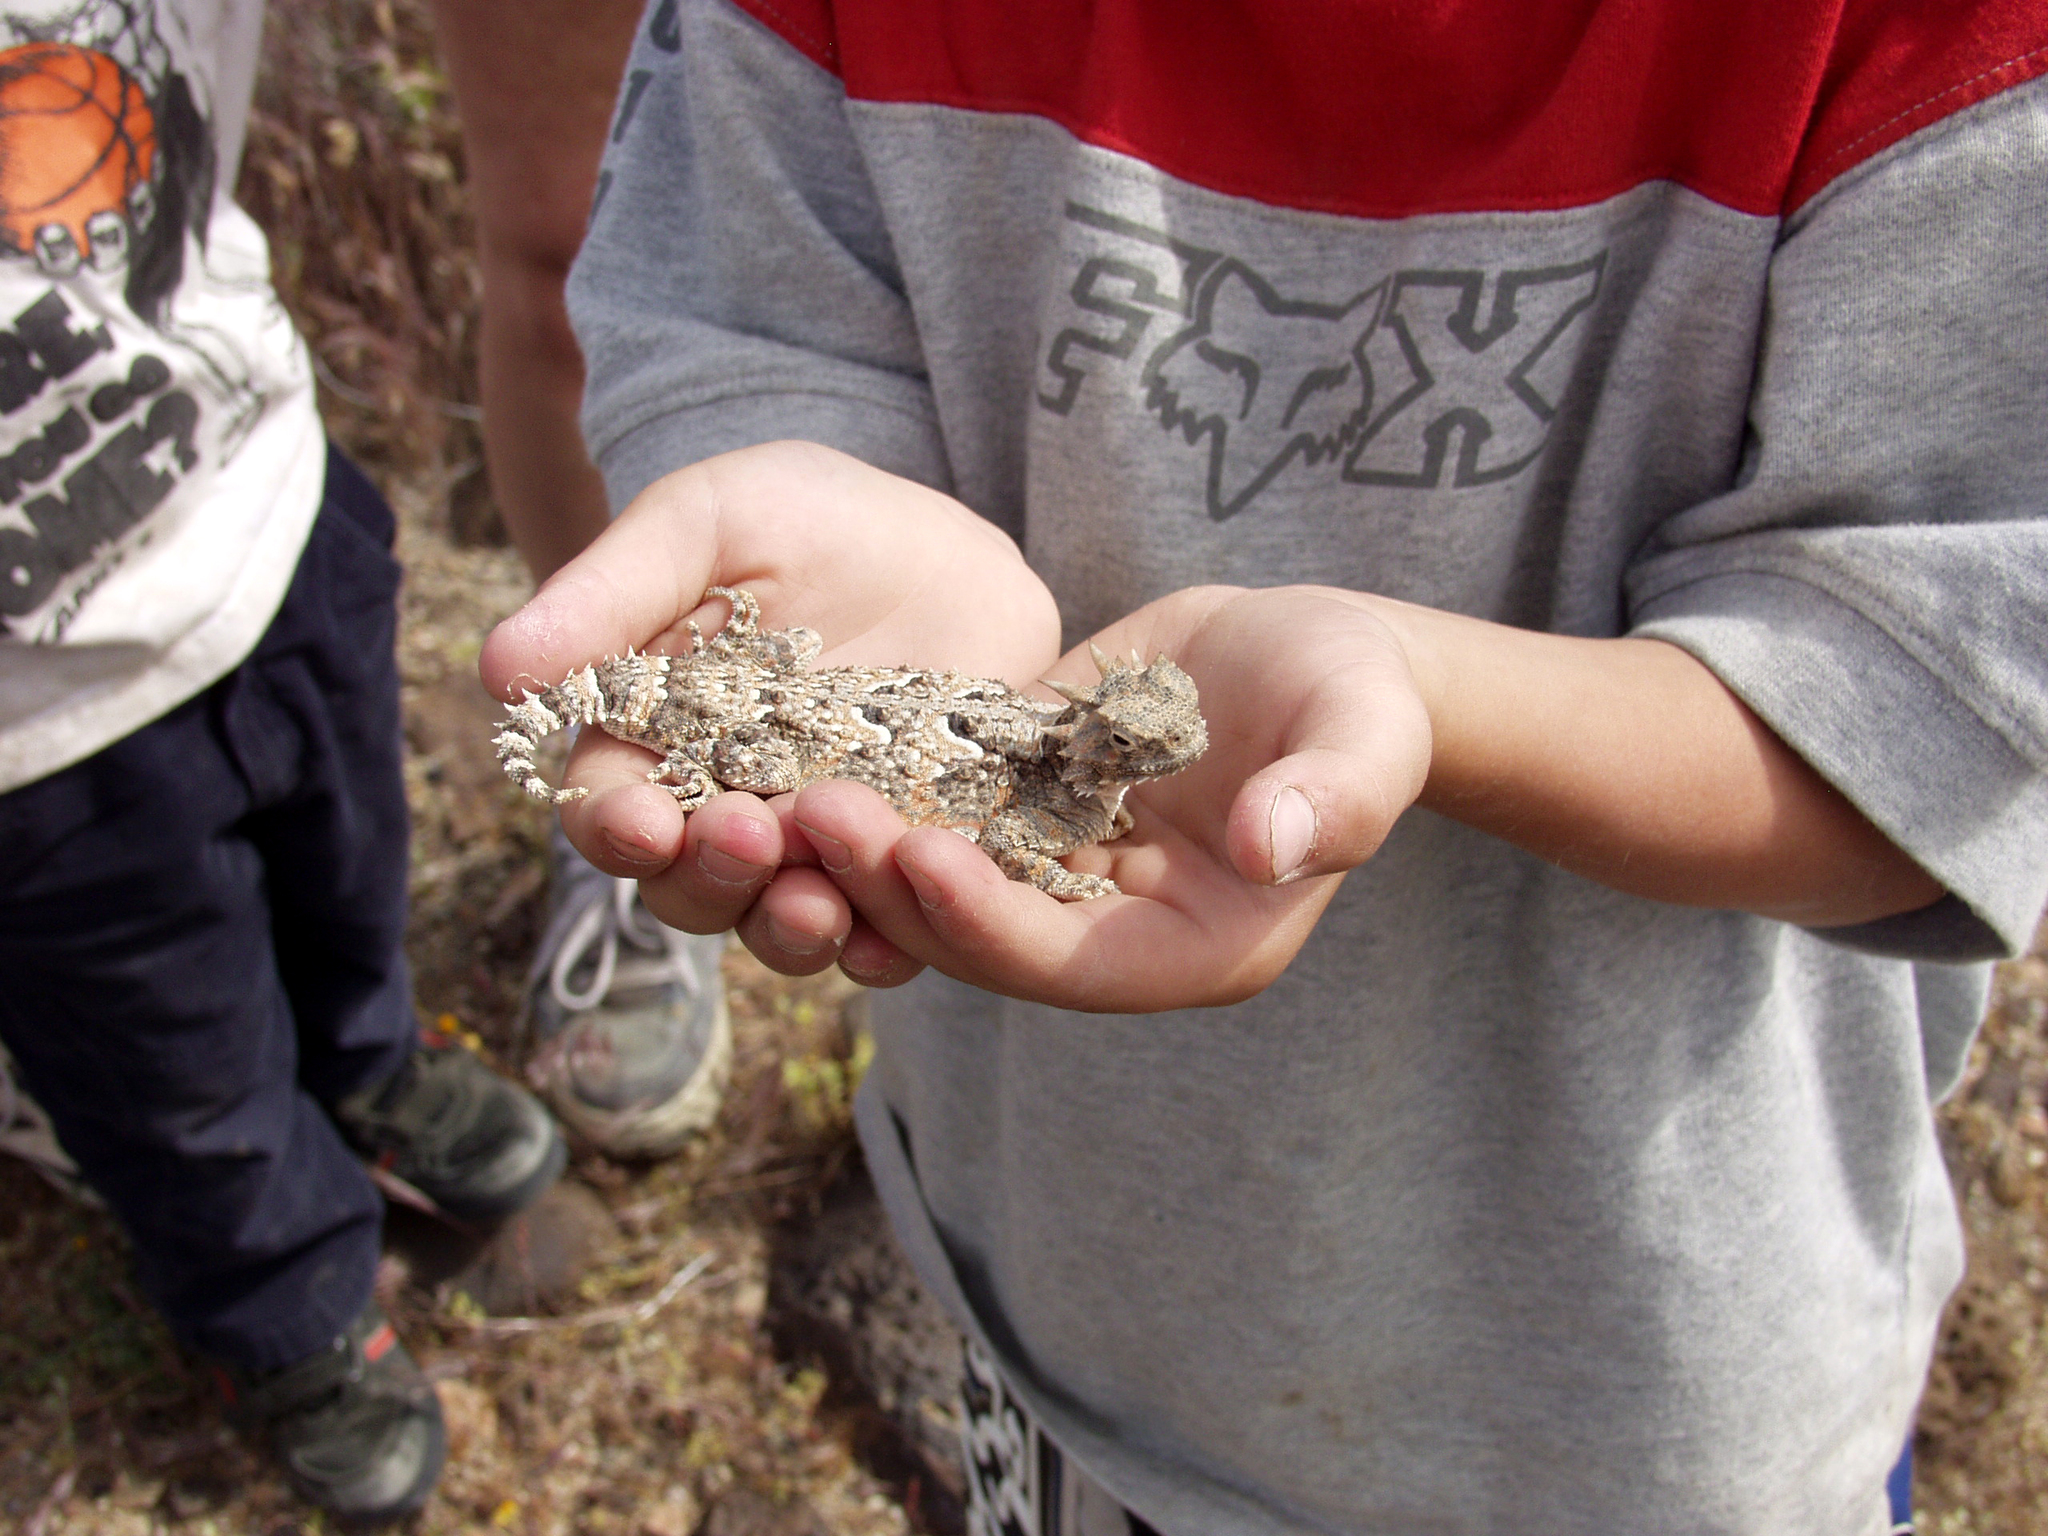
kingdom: Animalia
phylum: Chordata
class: Squamata
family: Phrynosomatidae
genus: Phrynosoma
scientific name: Phrynosoma platyrhinos
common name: Desert horned lizard
